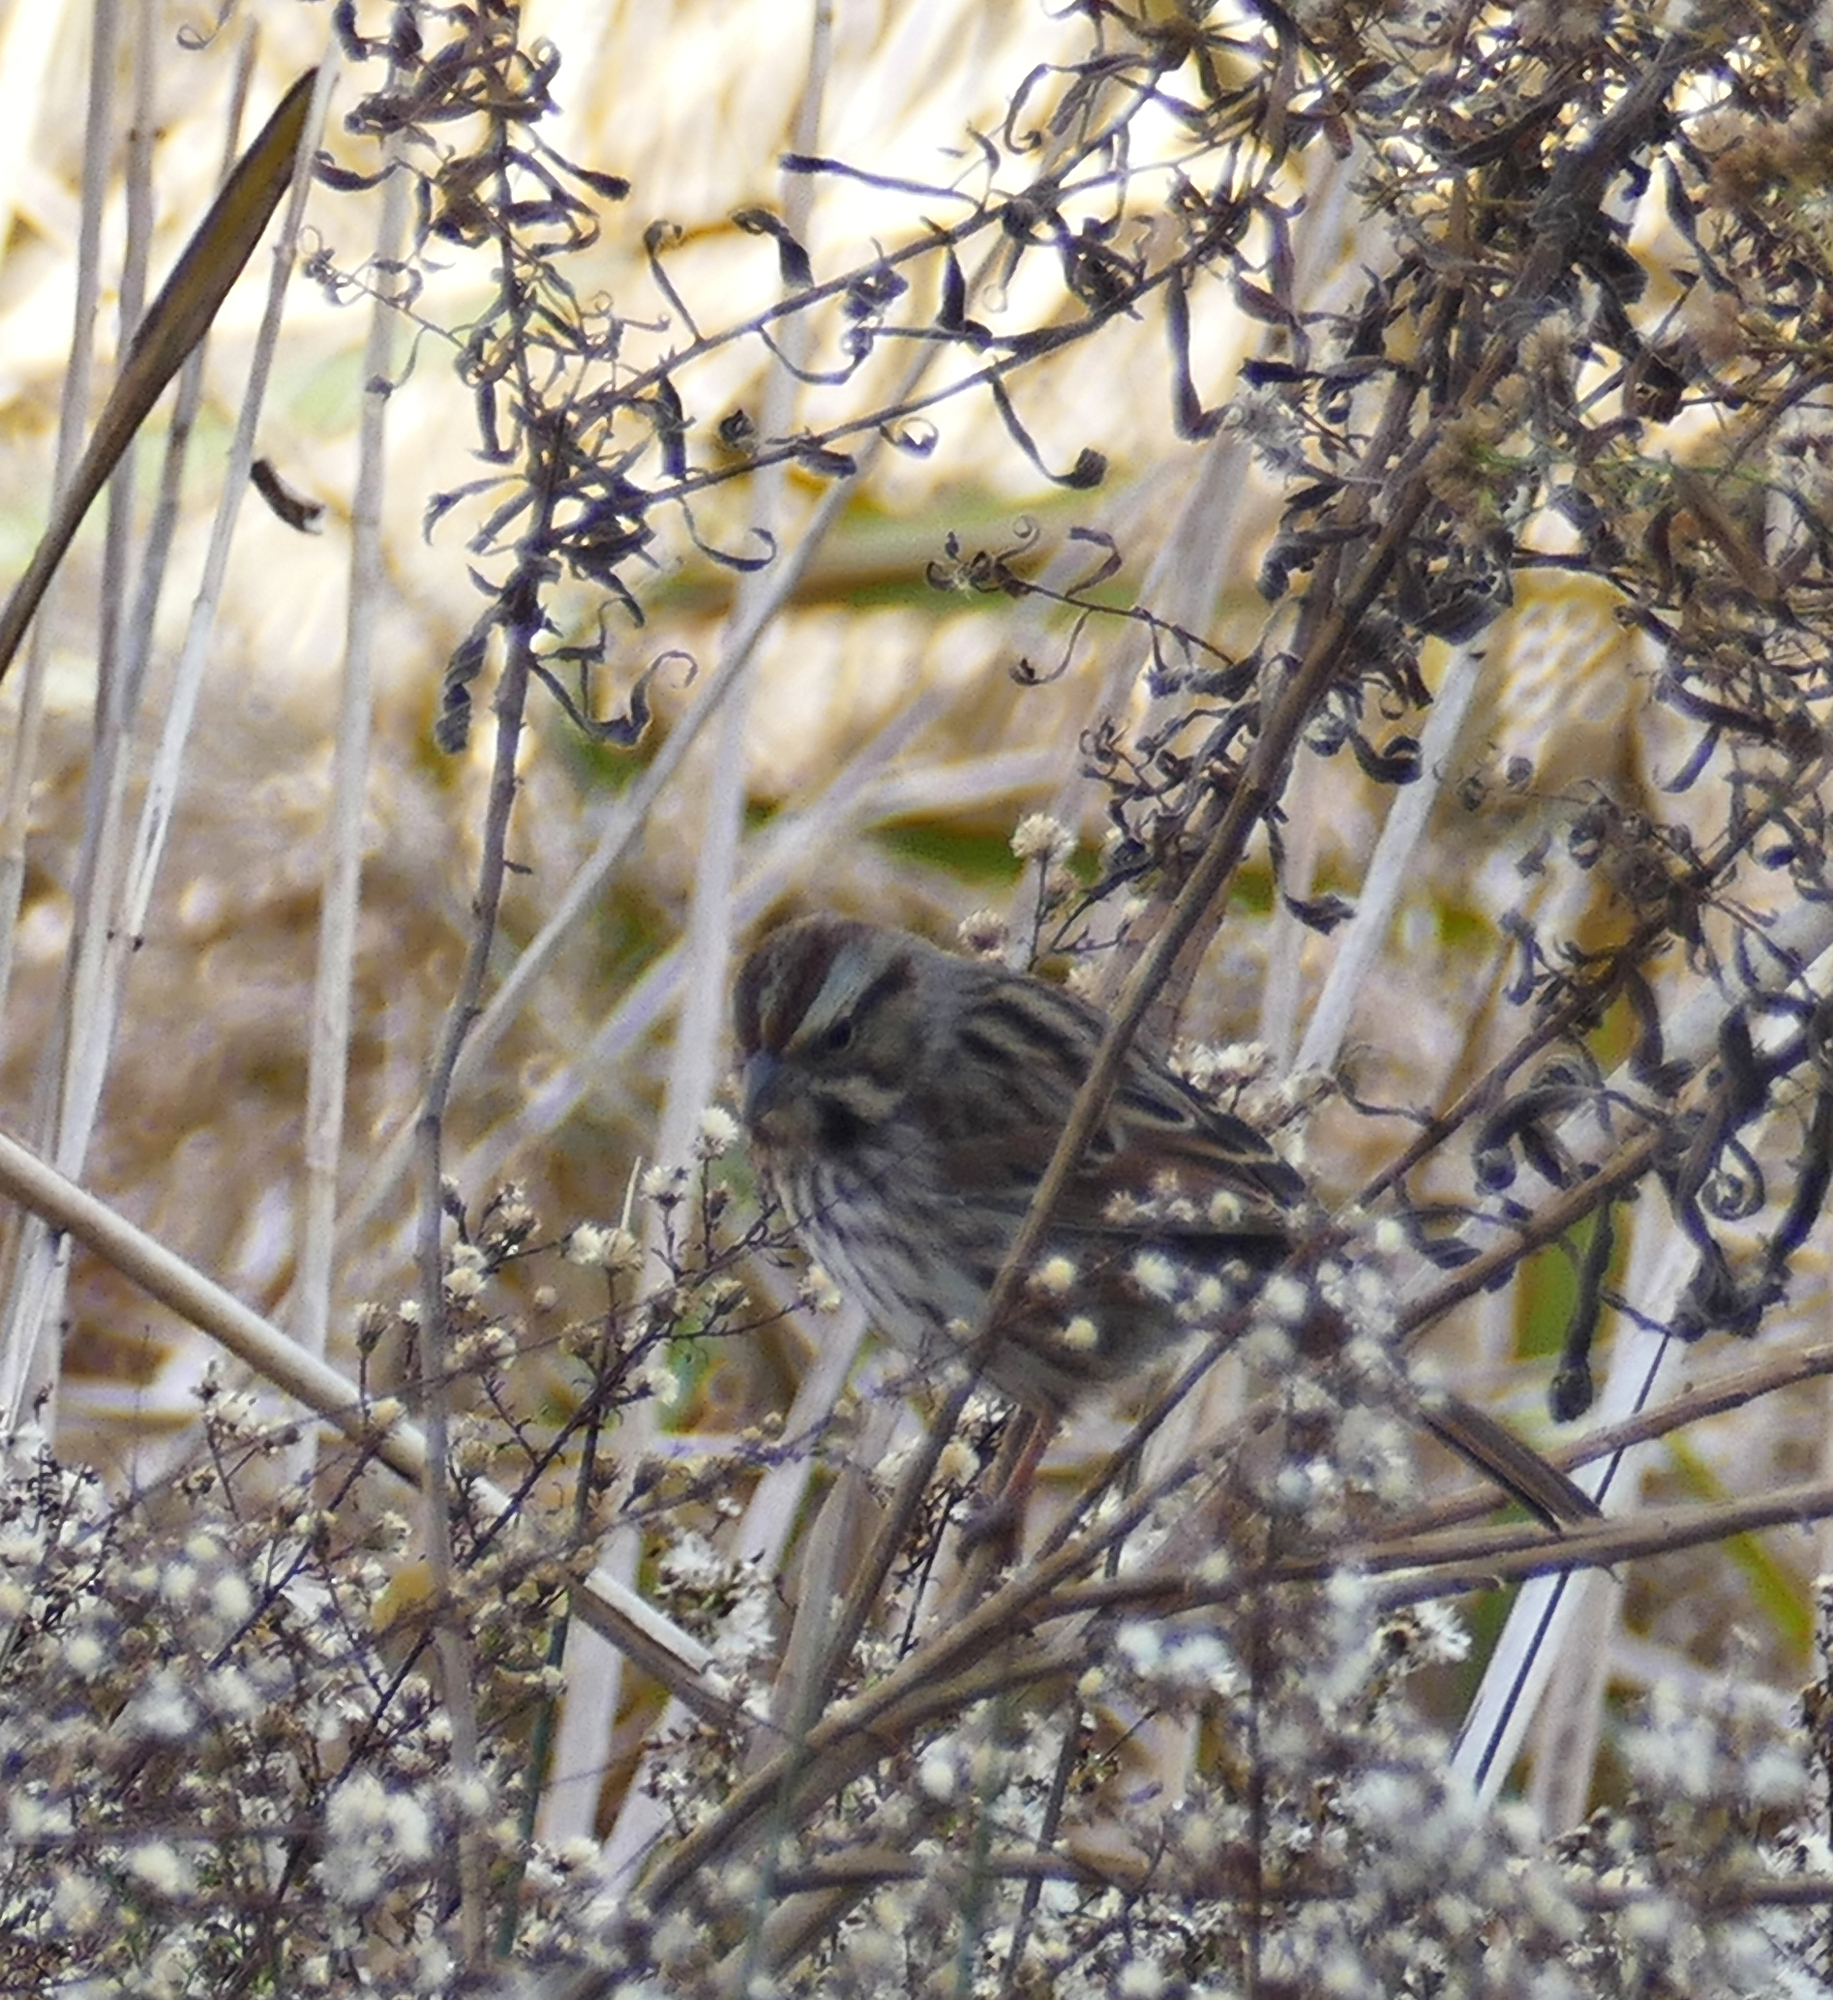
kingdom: Animalia
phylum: Chordata
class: Aves
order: Passeriformes
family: Passerellidae
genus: Melospiza
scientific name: Melospiza melodia
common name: Song sparrow
